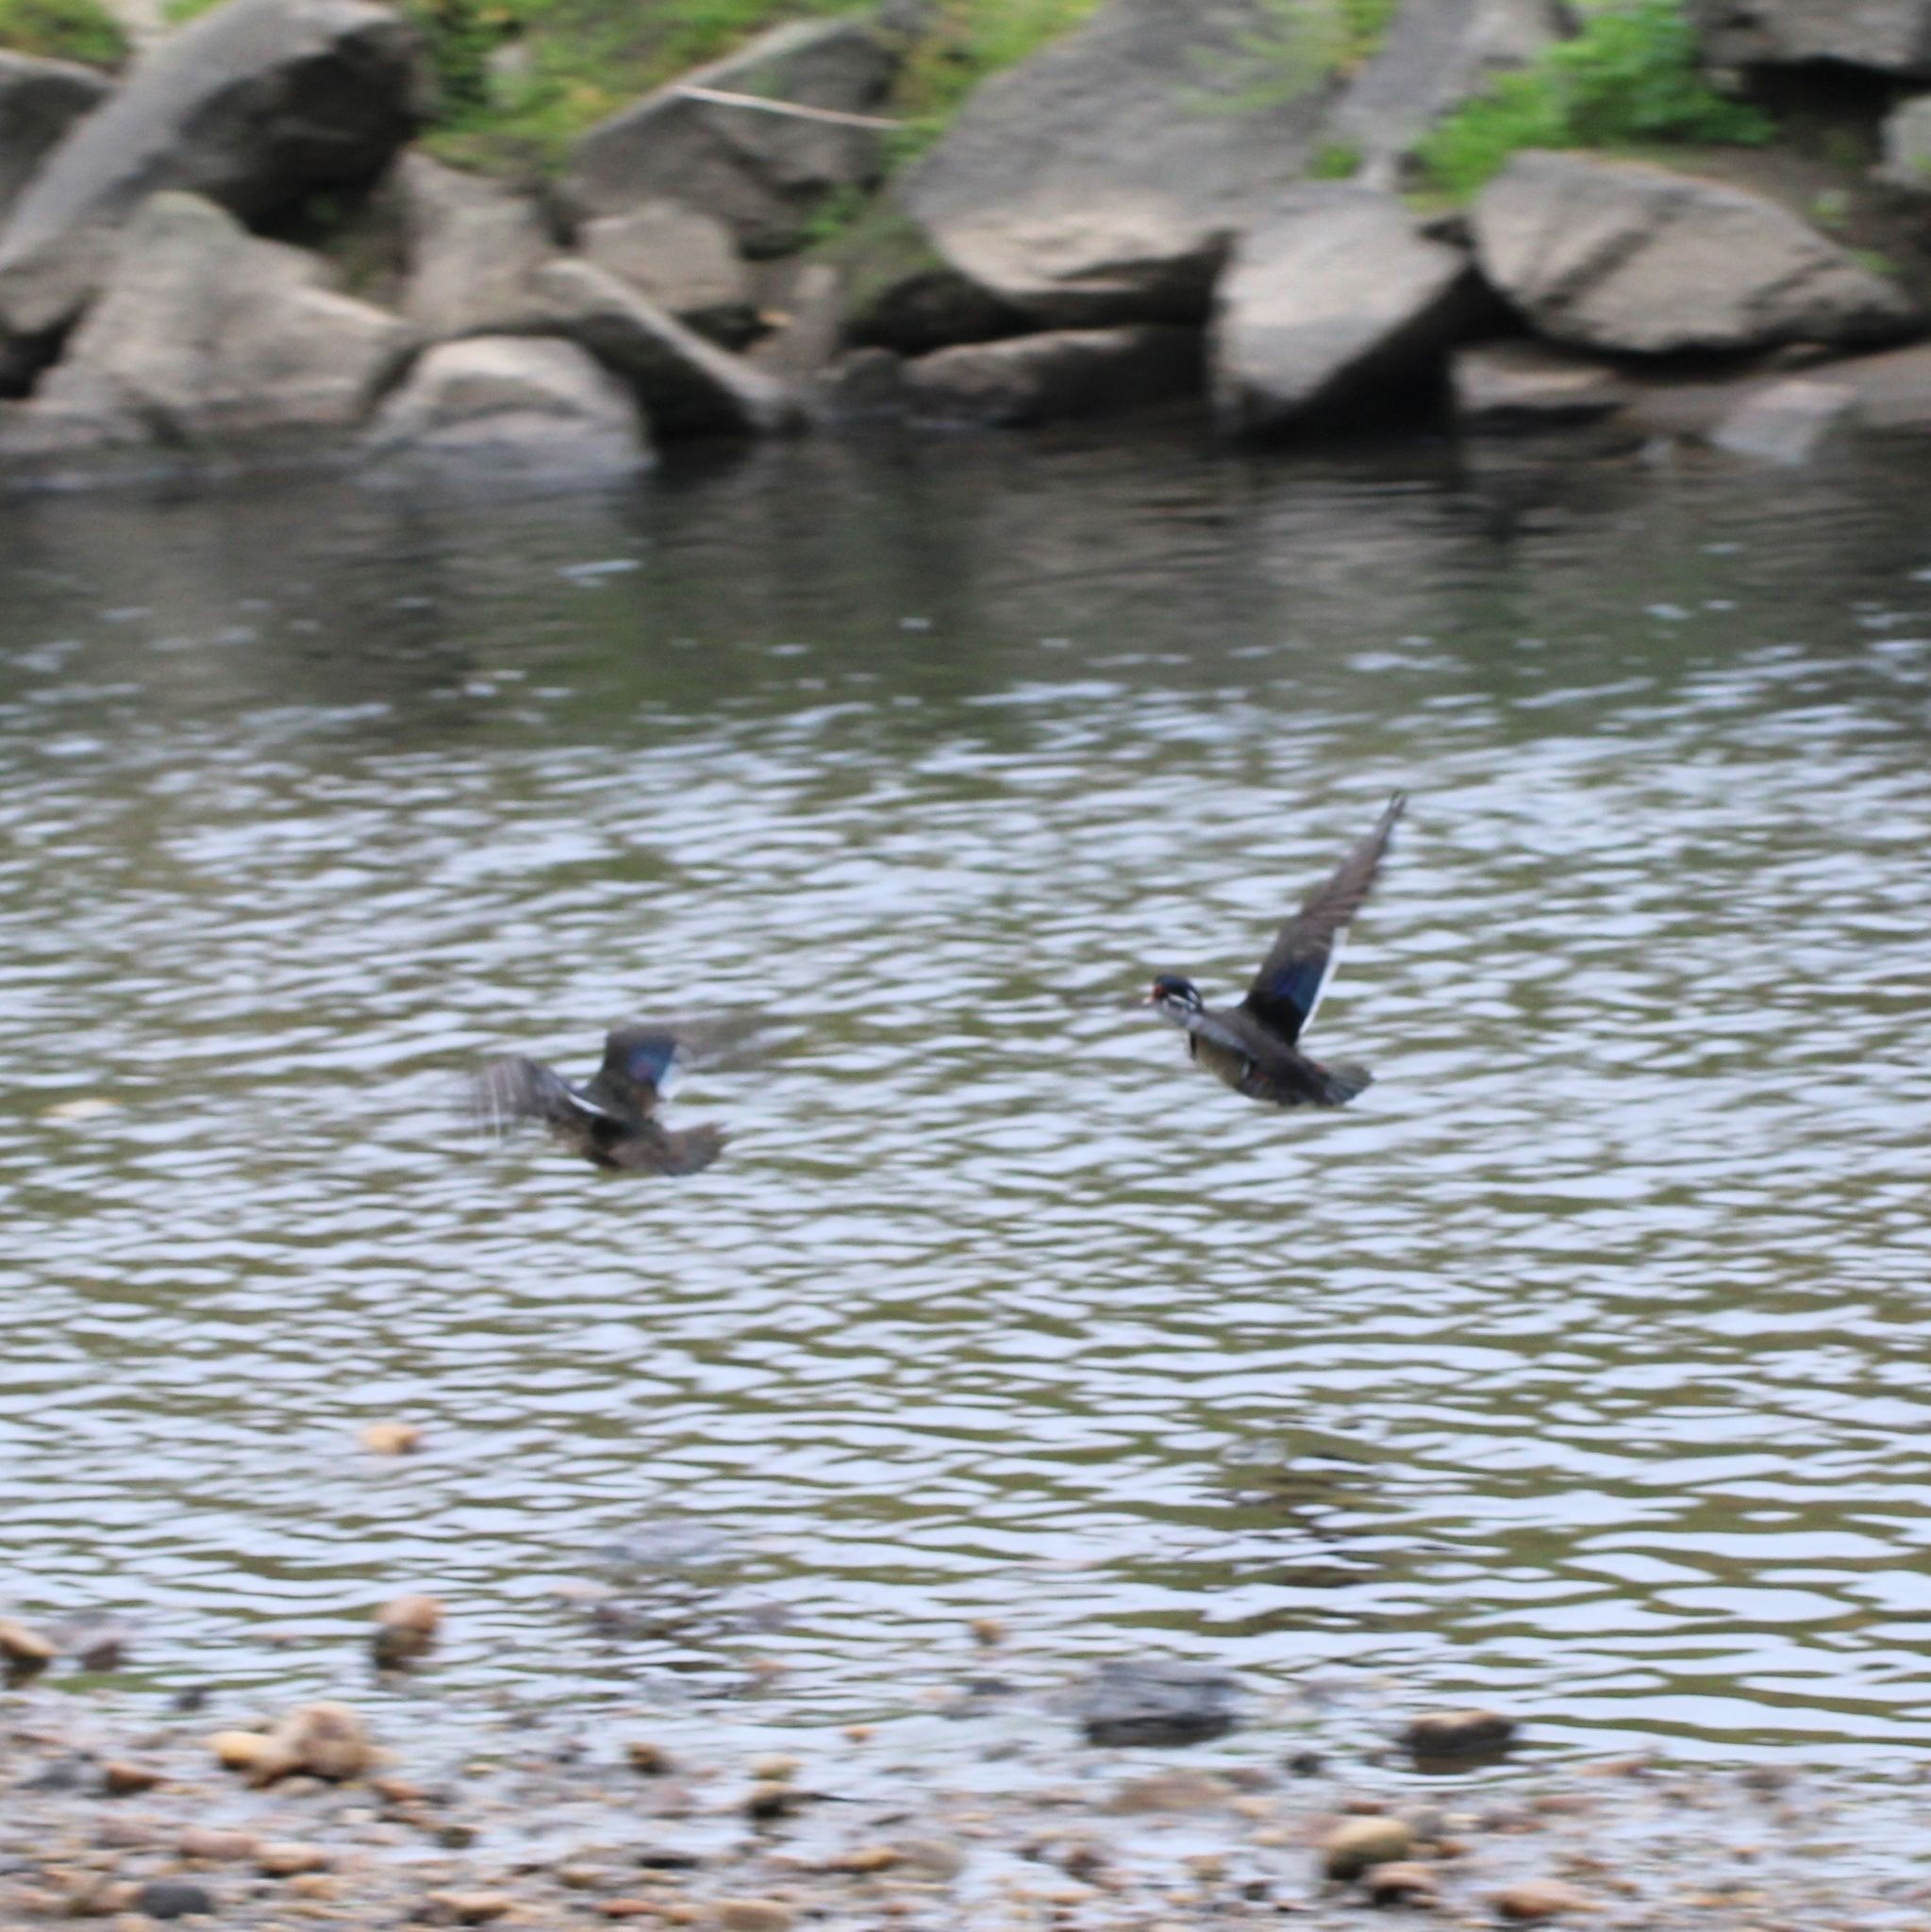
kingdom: Animalia
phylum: Chordata
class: Aves
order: Anseriformes
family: Anatidae
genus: Aix
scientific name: Aix sponsa
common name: Wood duck
